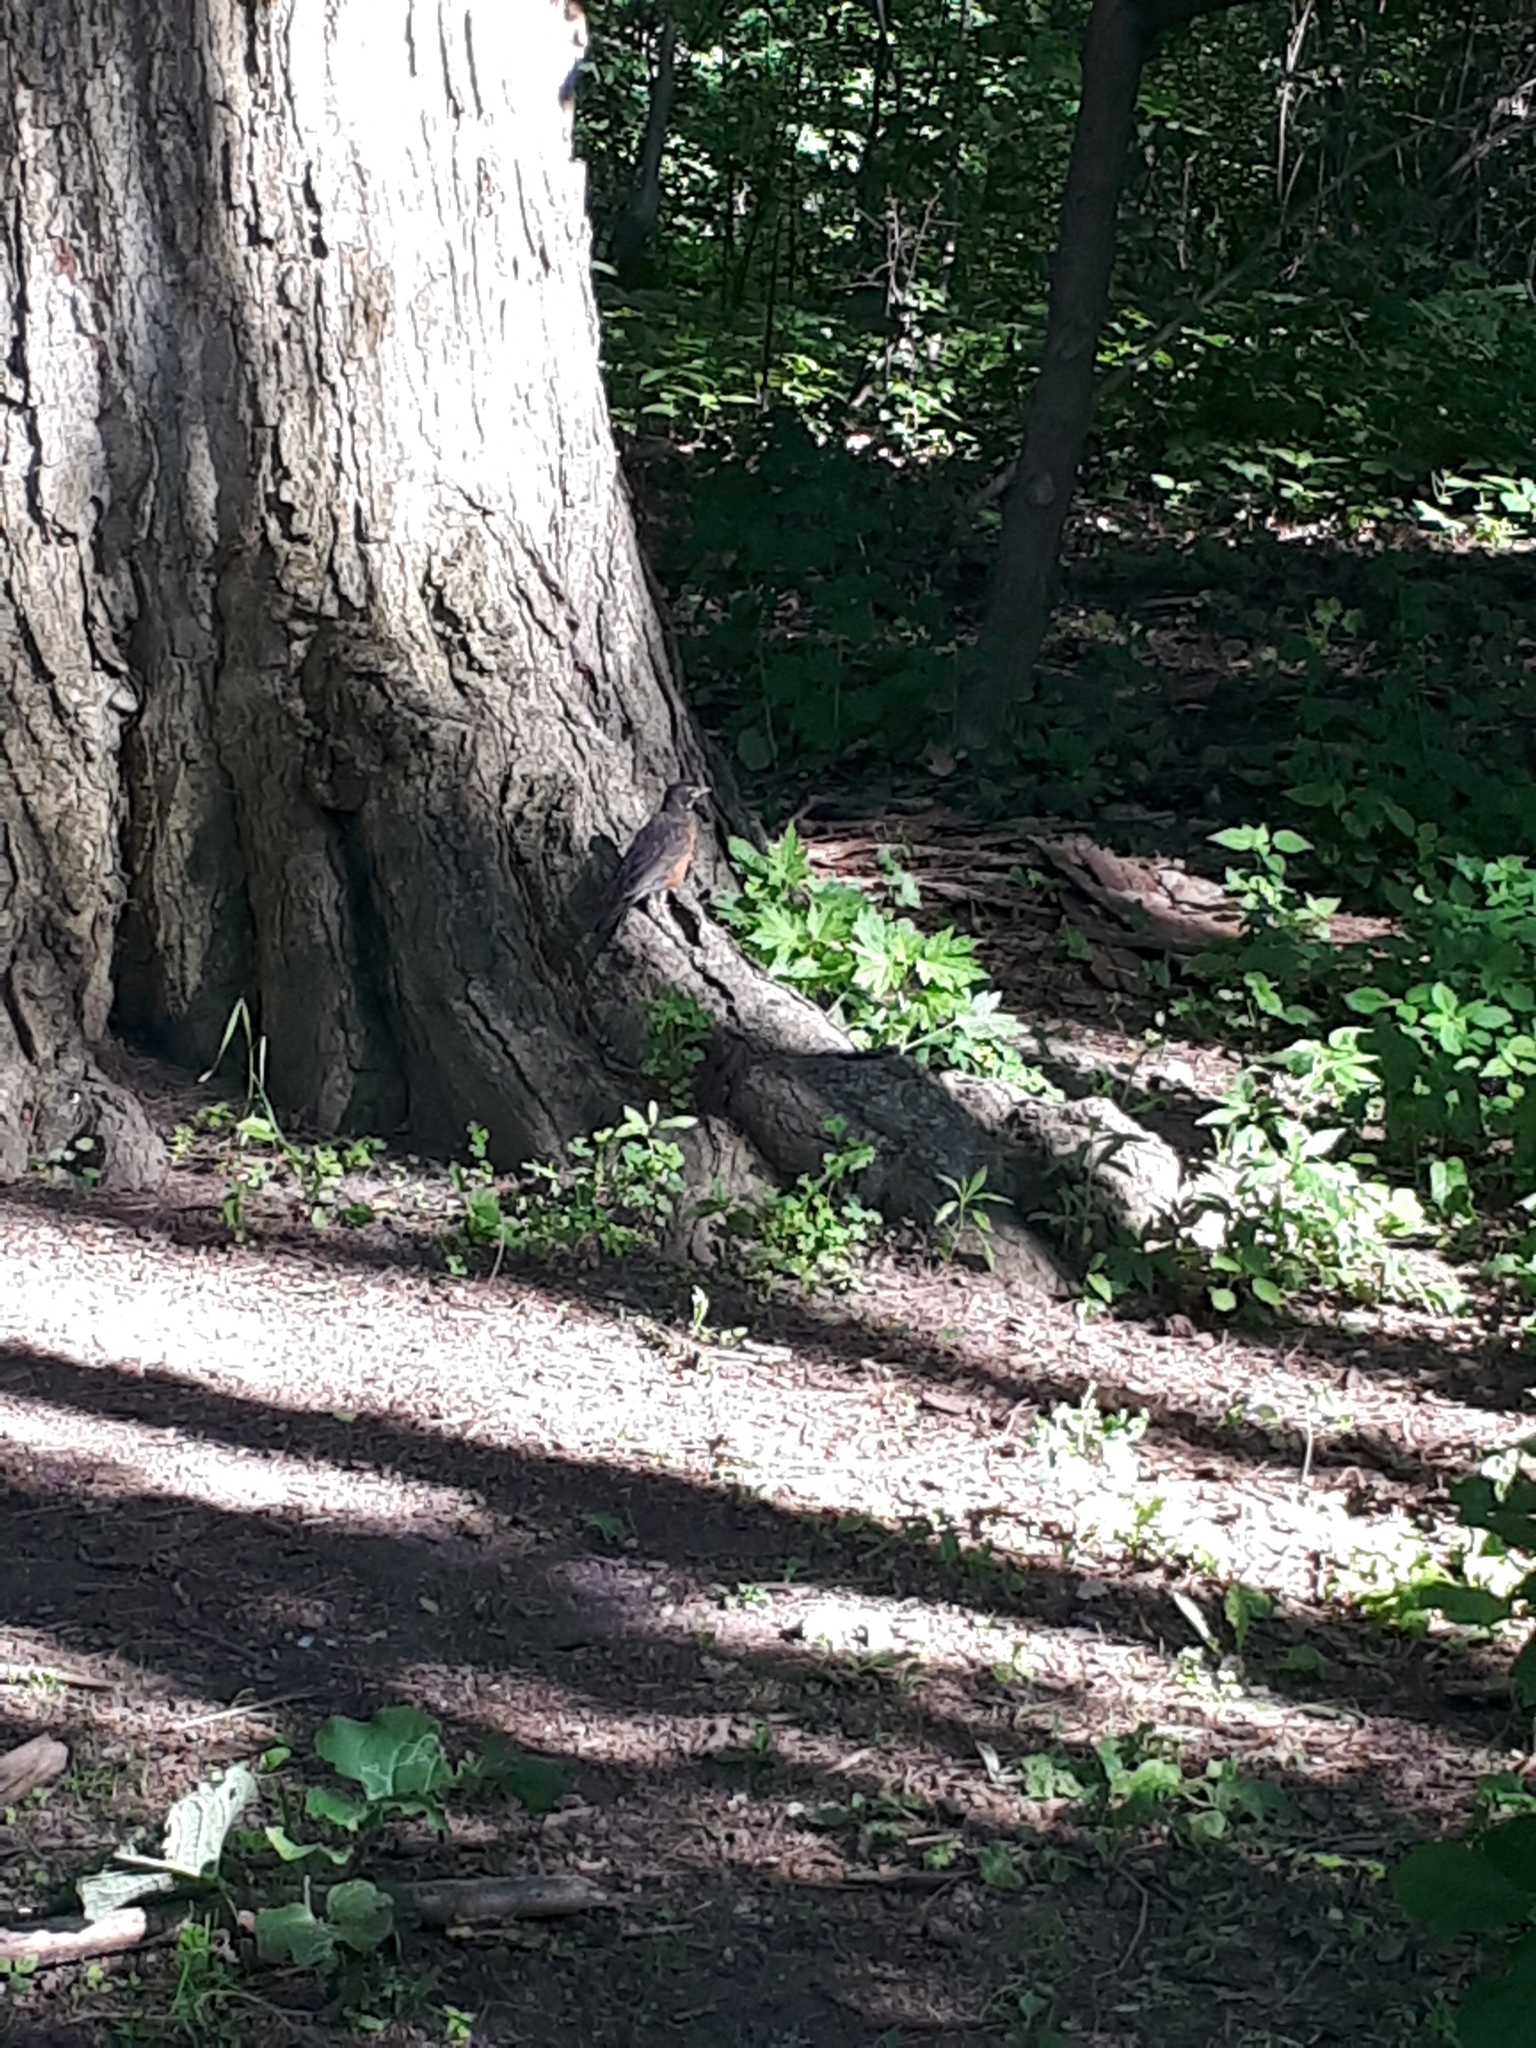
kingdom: Animalia
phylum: Chordata
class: Aves
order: Passeriformes
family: Turdidae
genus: Turdus
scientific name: Turdus migratorius
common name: American robin
